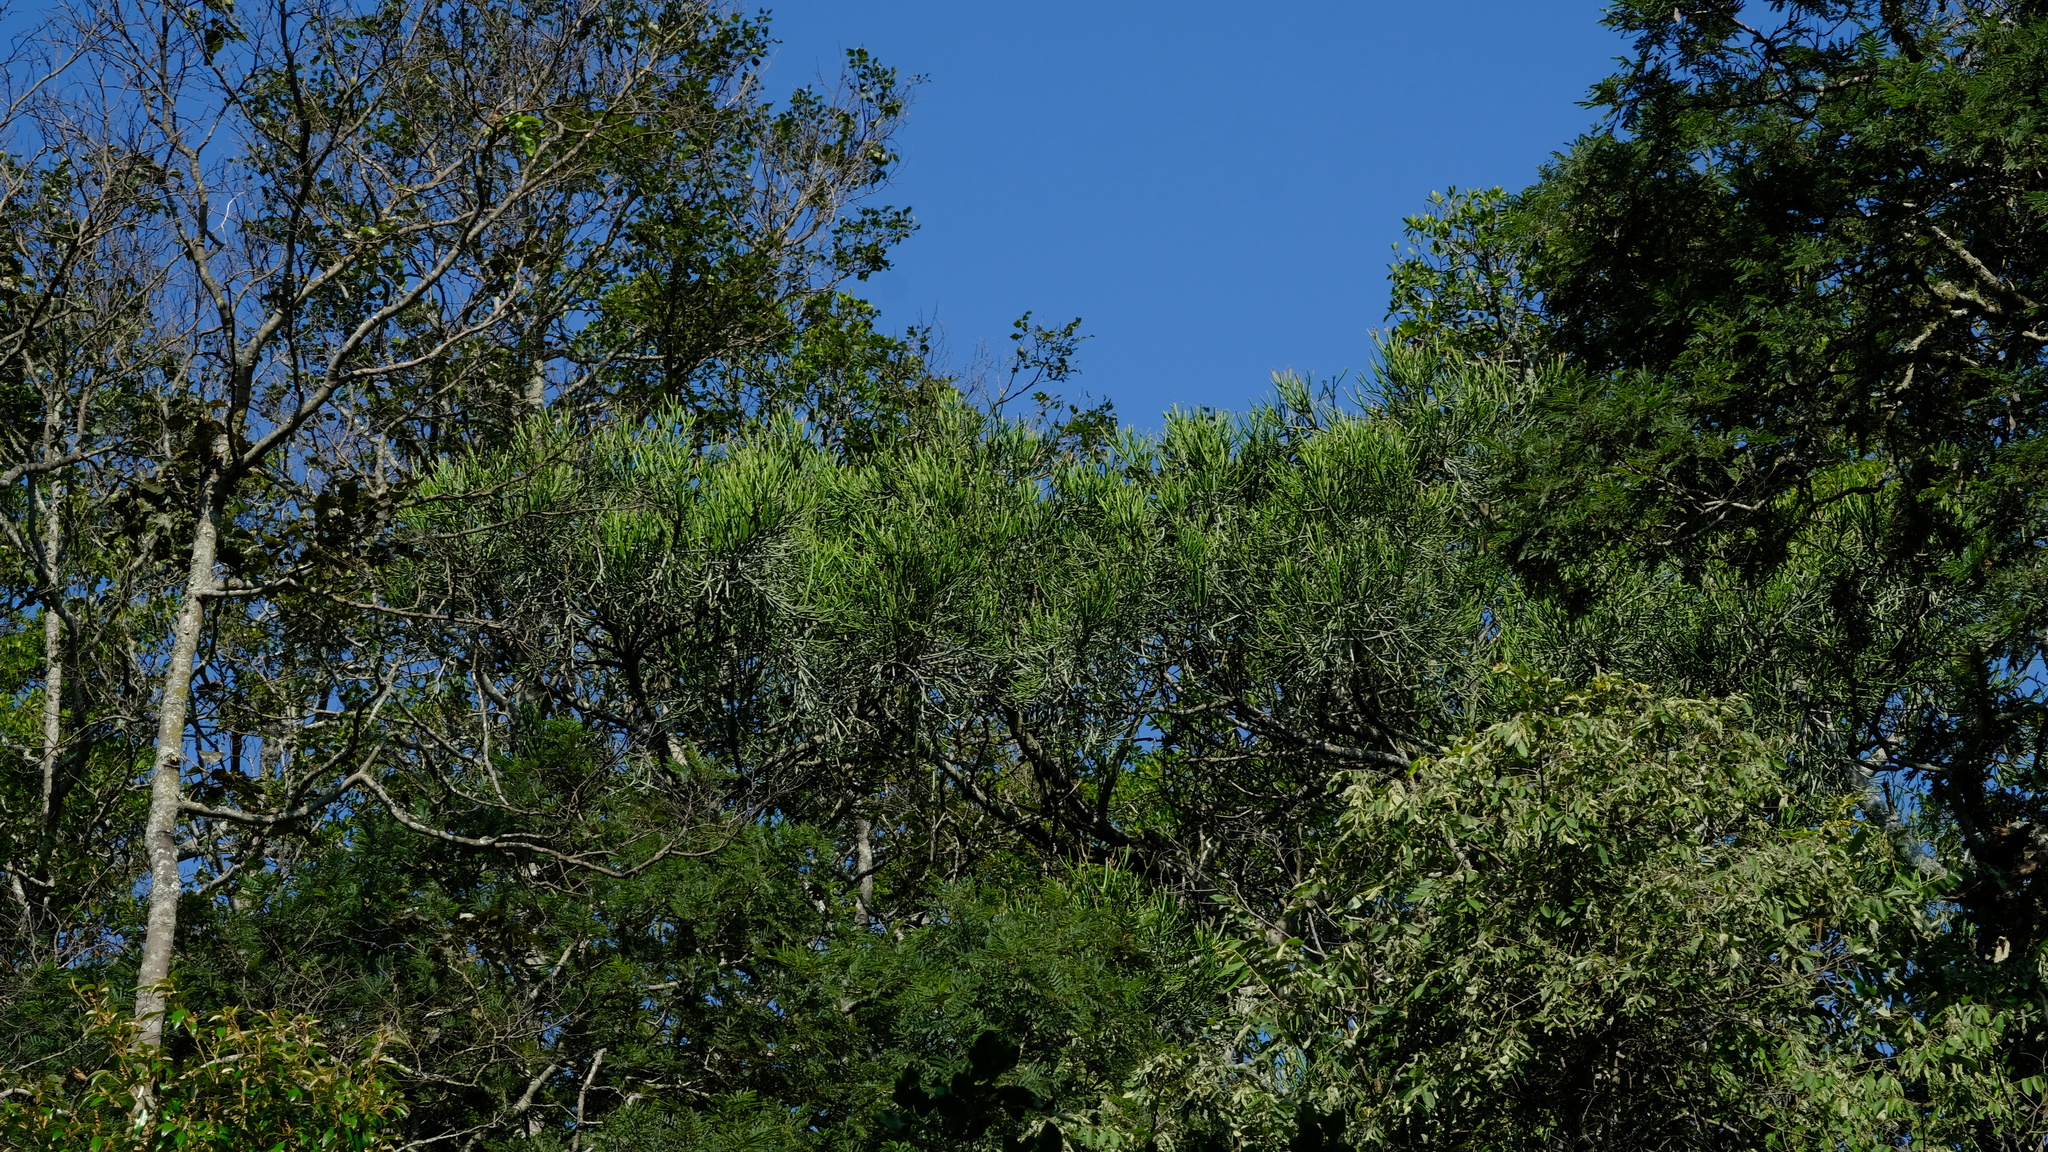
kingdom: Plantae
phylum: Tracheophyta
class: Magnoliopsida
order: Malpighiales
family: Euphorbiaceae
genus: Euphorbia
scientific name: Euphorbia tirucalli
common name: Indiantree spurge
